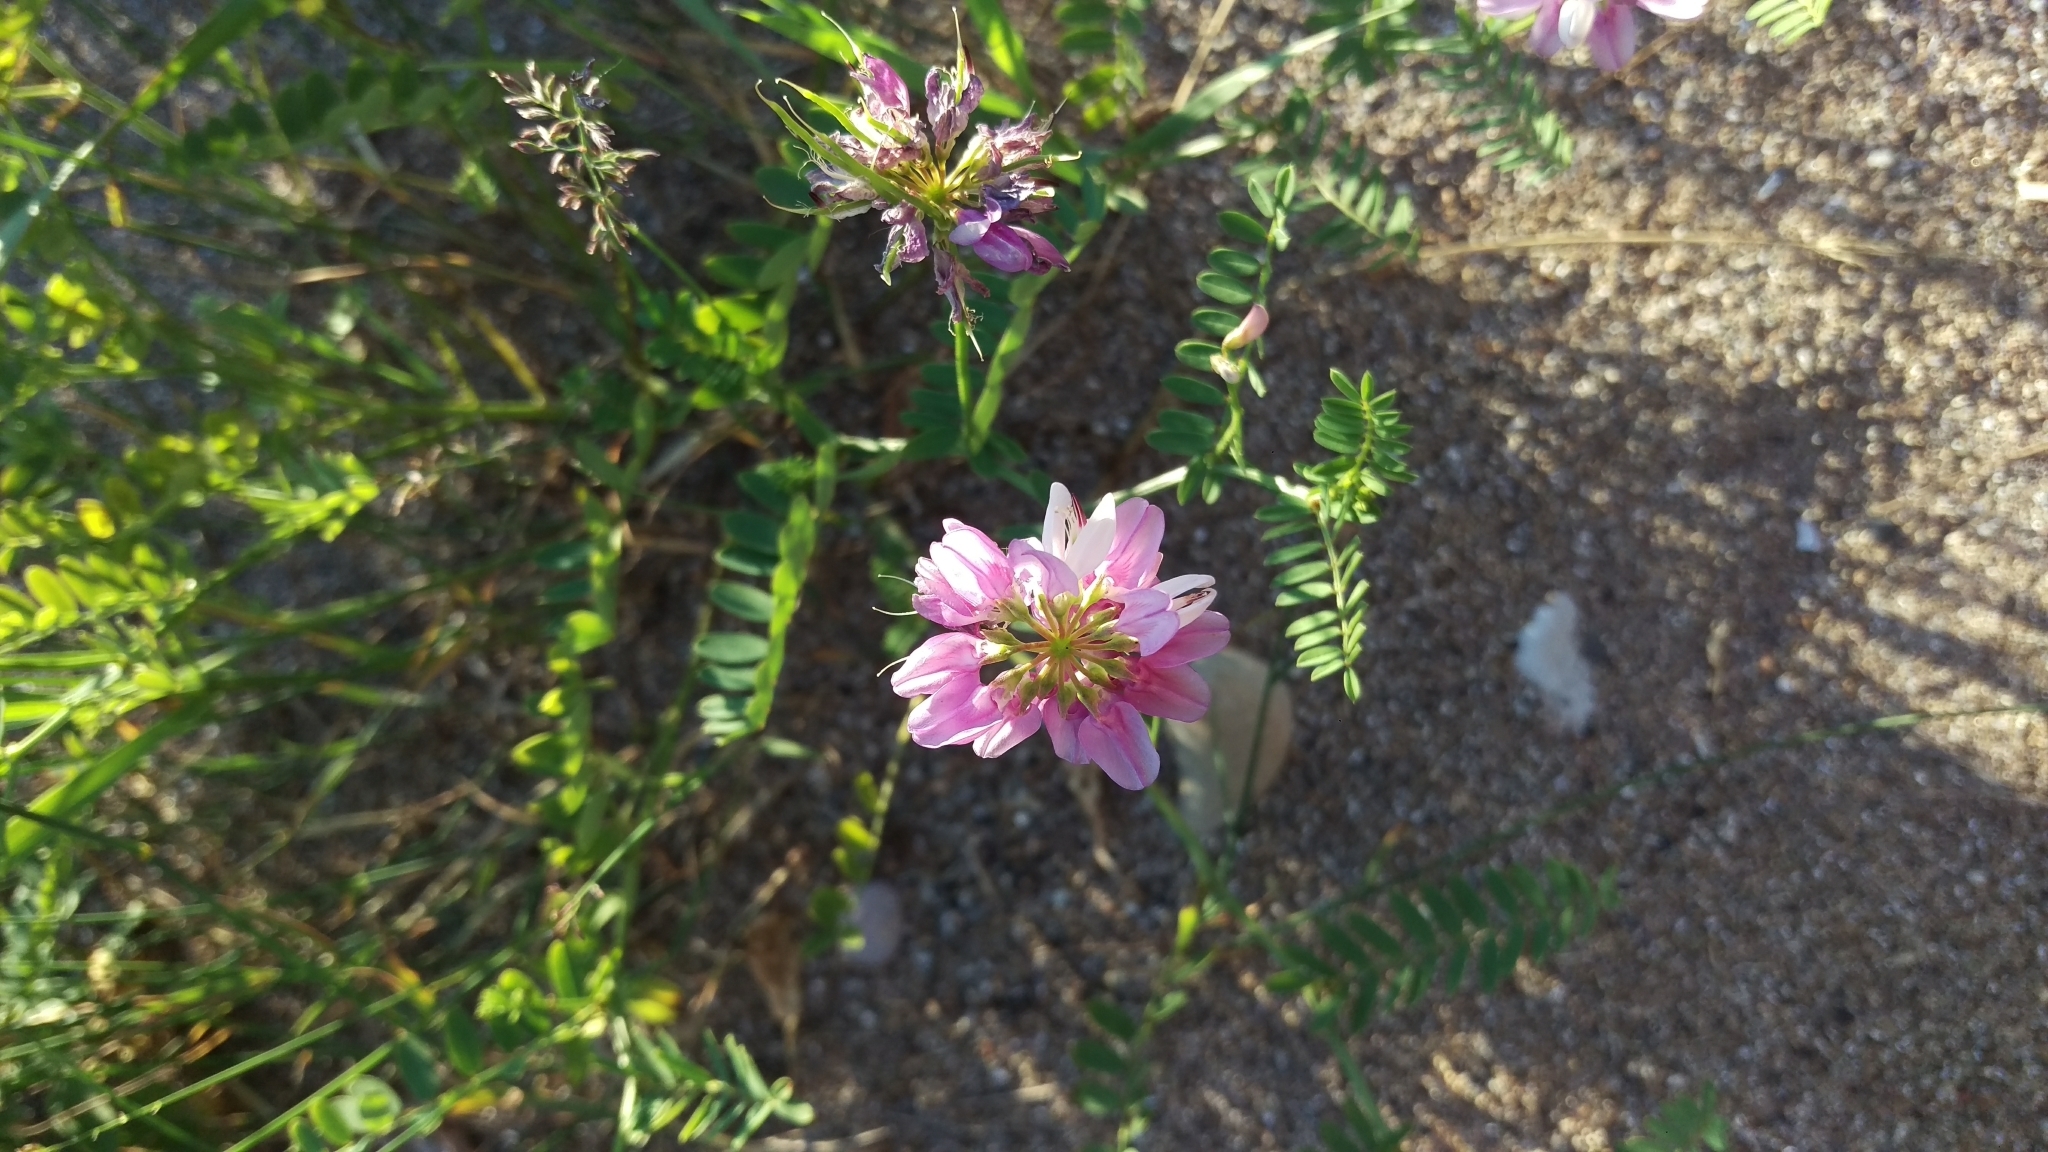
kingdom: Plantae
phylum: Tracheophyta
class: Magnoliopsida
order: Fabales
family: Fabaceae
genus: Coronilla
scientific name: Coronilla varia
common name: Crownvetch
